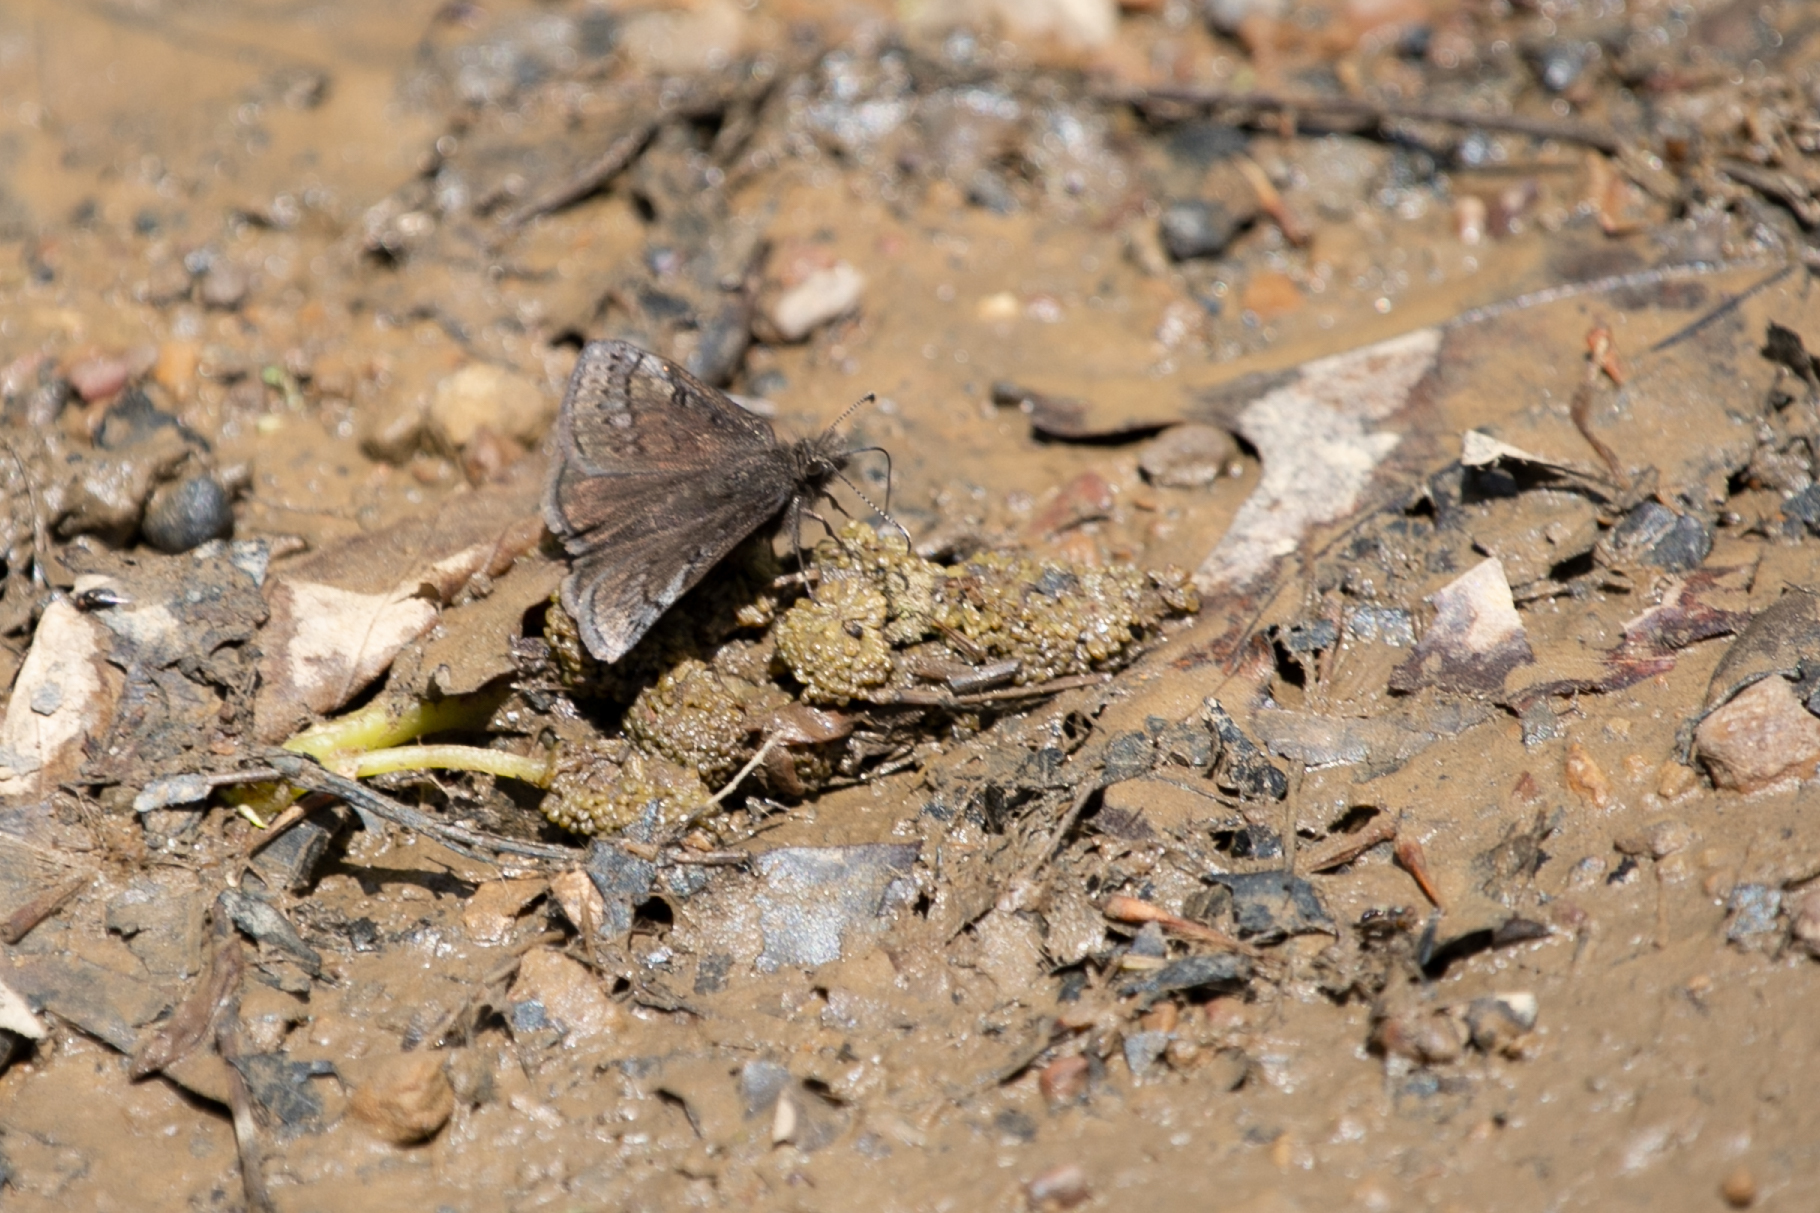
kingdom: Animalia
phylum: Arthropoda
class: Insecta
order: Lepidoptera
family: Hesperiidae
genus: Erynnis
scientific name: Erynnis brizo
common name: Sleepy duskywing
